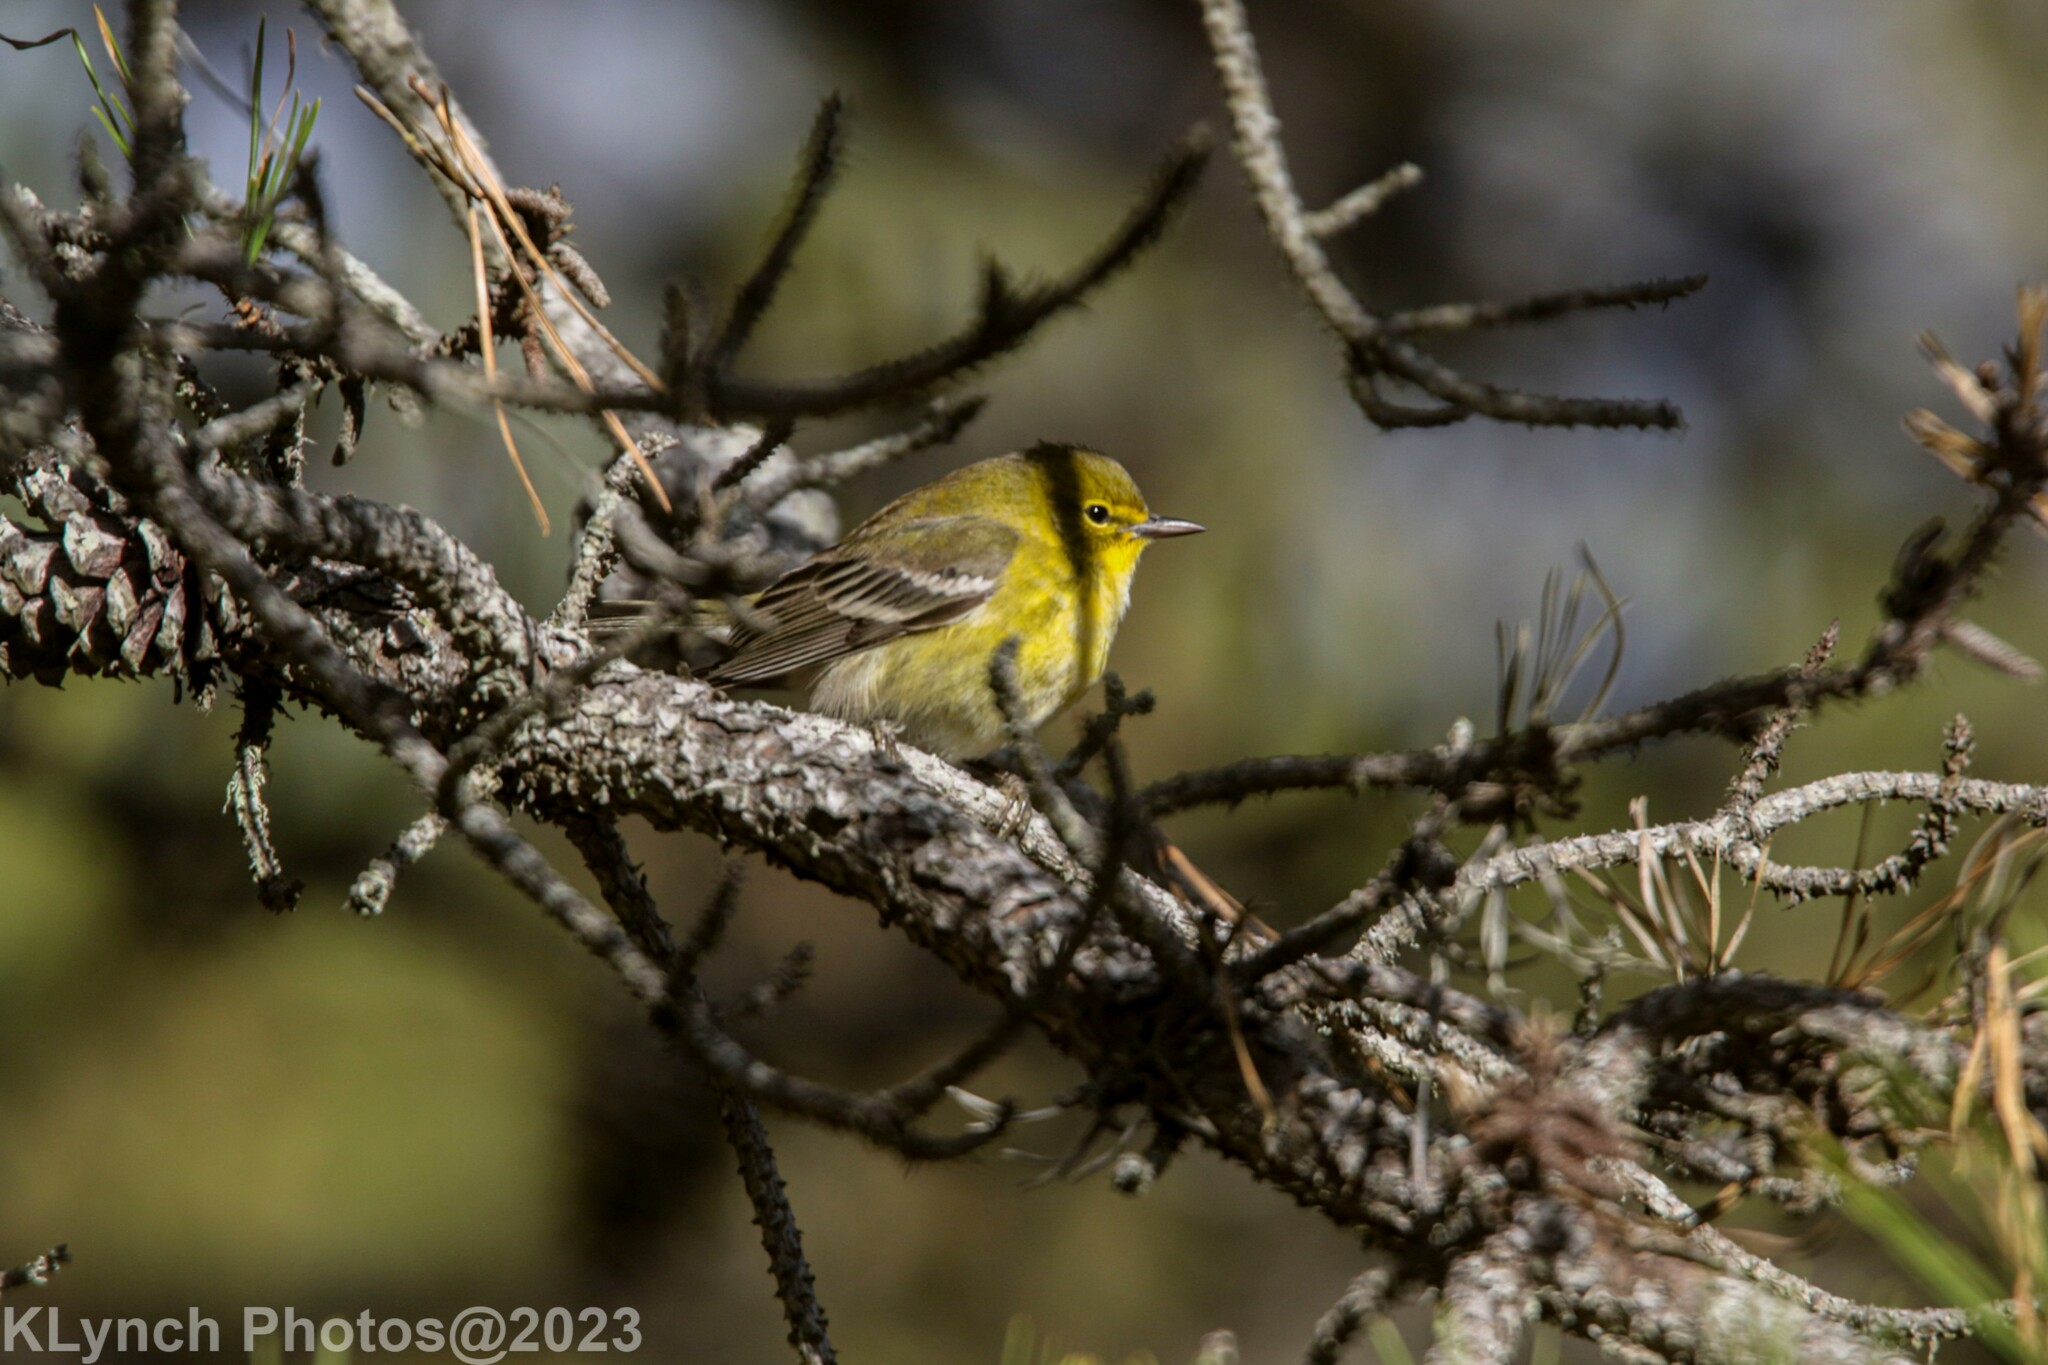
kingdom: Animalia
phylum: Chordata
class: Aves
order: Passeriformes
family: Parulidae
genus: Setophaga
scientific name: Setophaga pinus
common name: Pine warbler
